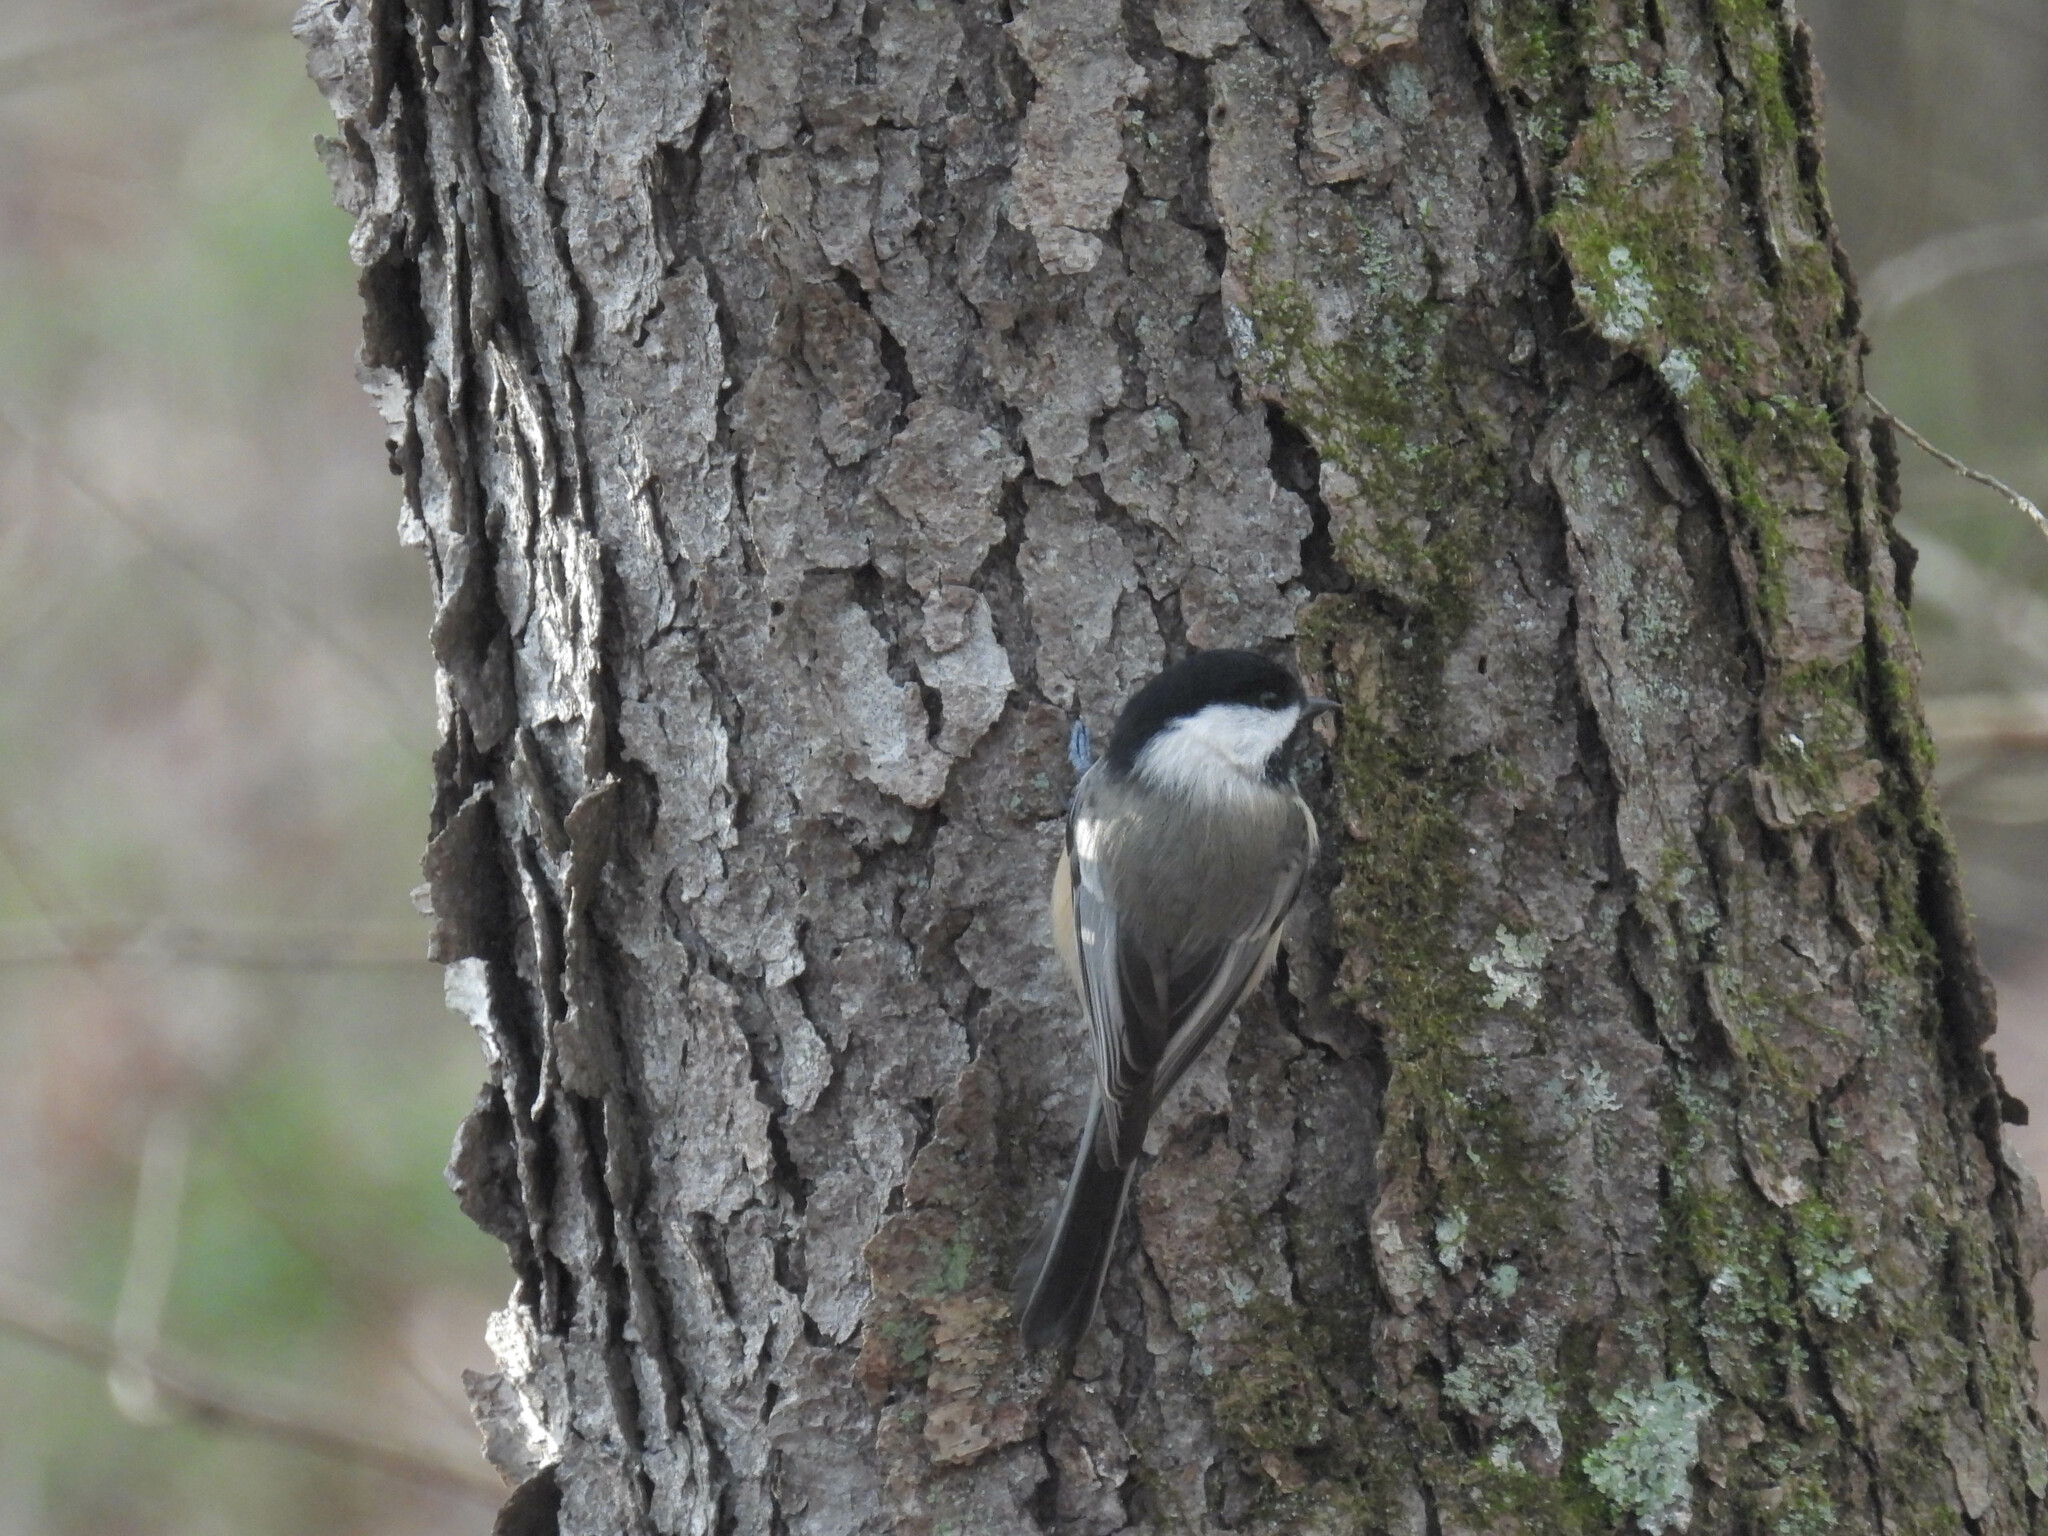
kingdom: Animalia
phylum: Chordata
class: Aves
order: Passeriformes
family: Paridae
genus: Poecile
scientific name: Poecile atricapillus
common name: Black-capped chickadee
